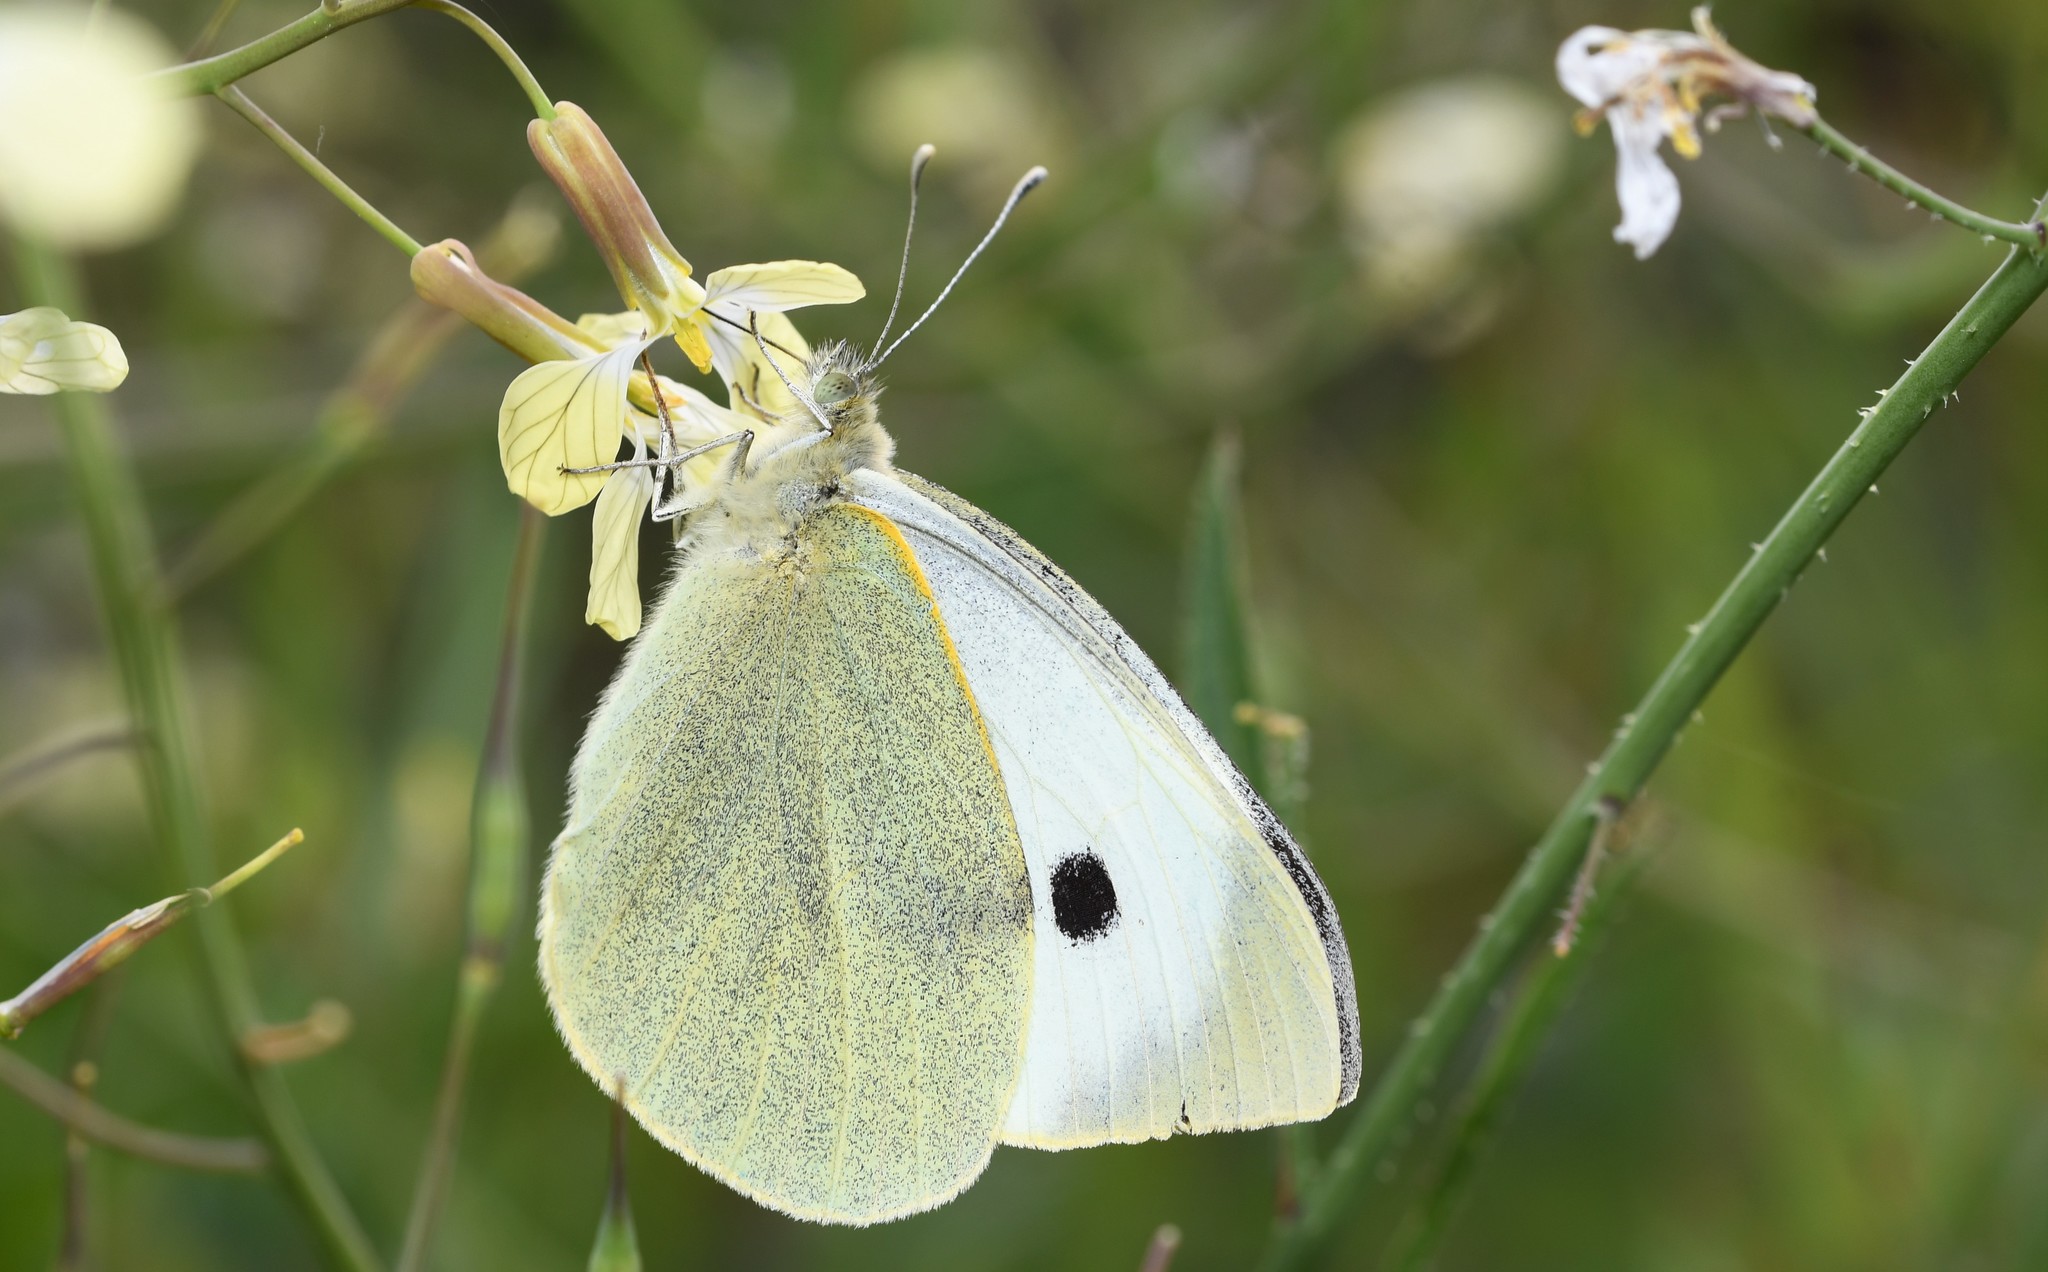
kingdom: Animalia
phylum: Arthropoda
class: Insecta
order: Lepidoptera
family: Pieridae
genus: Pieris
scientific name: Pieris brassicae
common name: Large white
